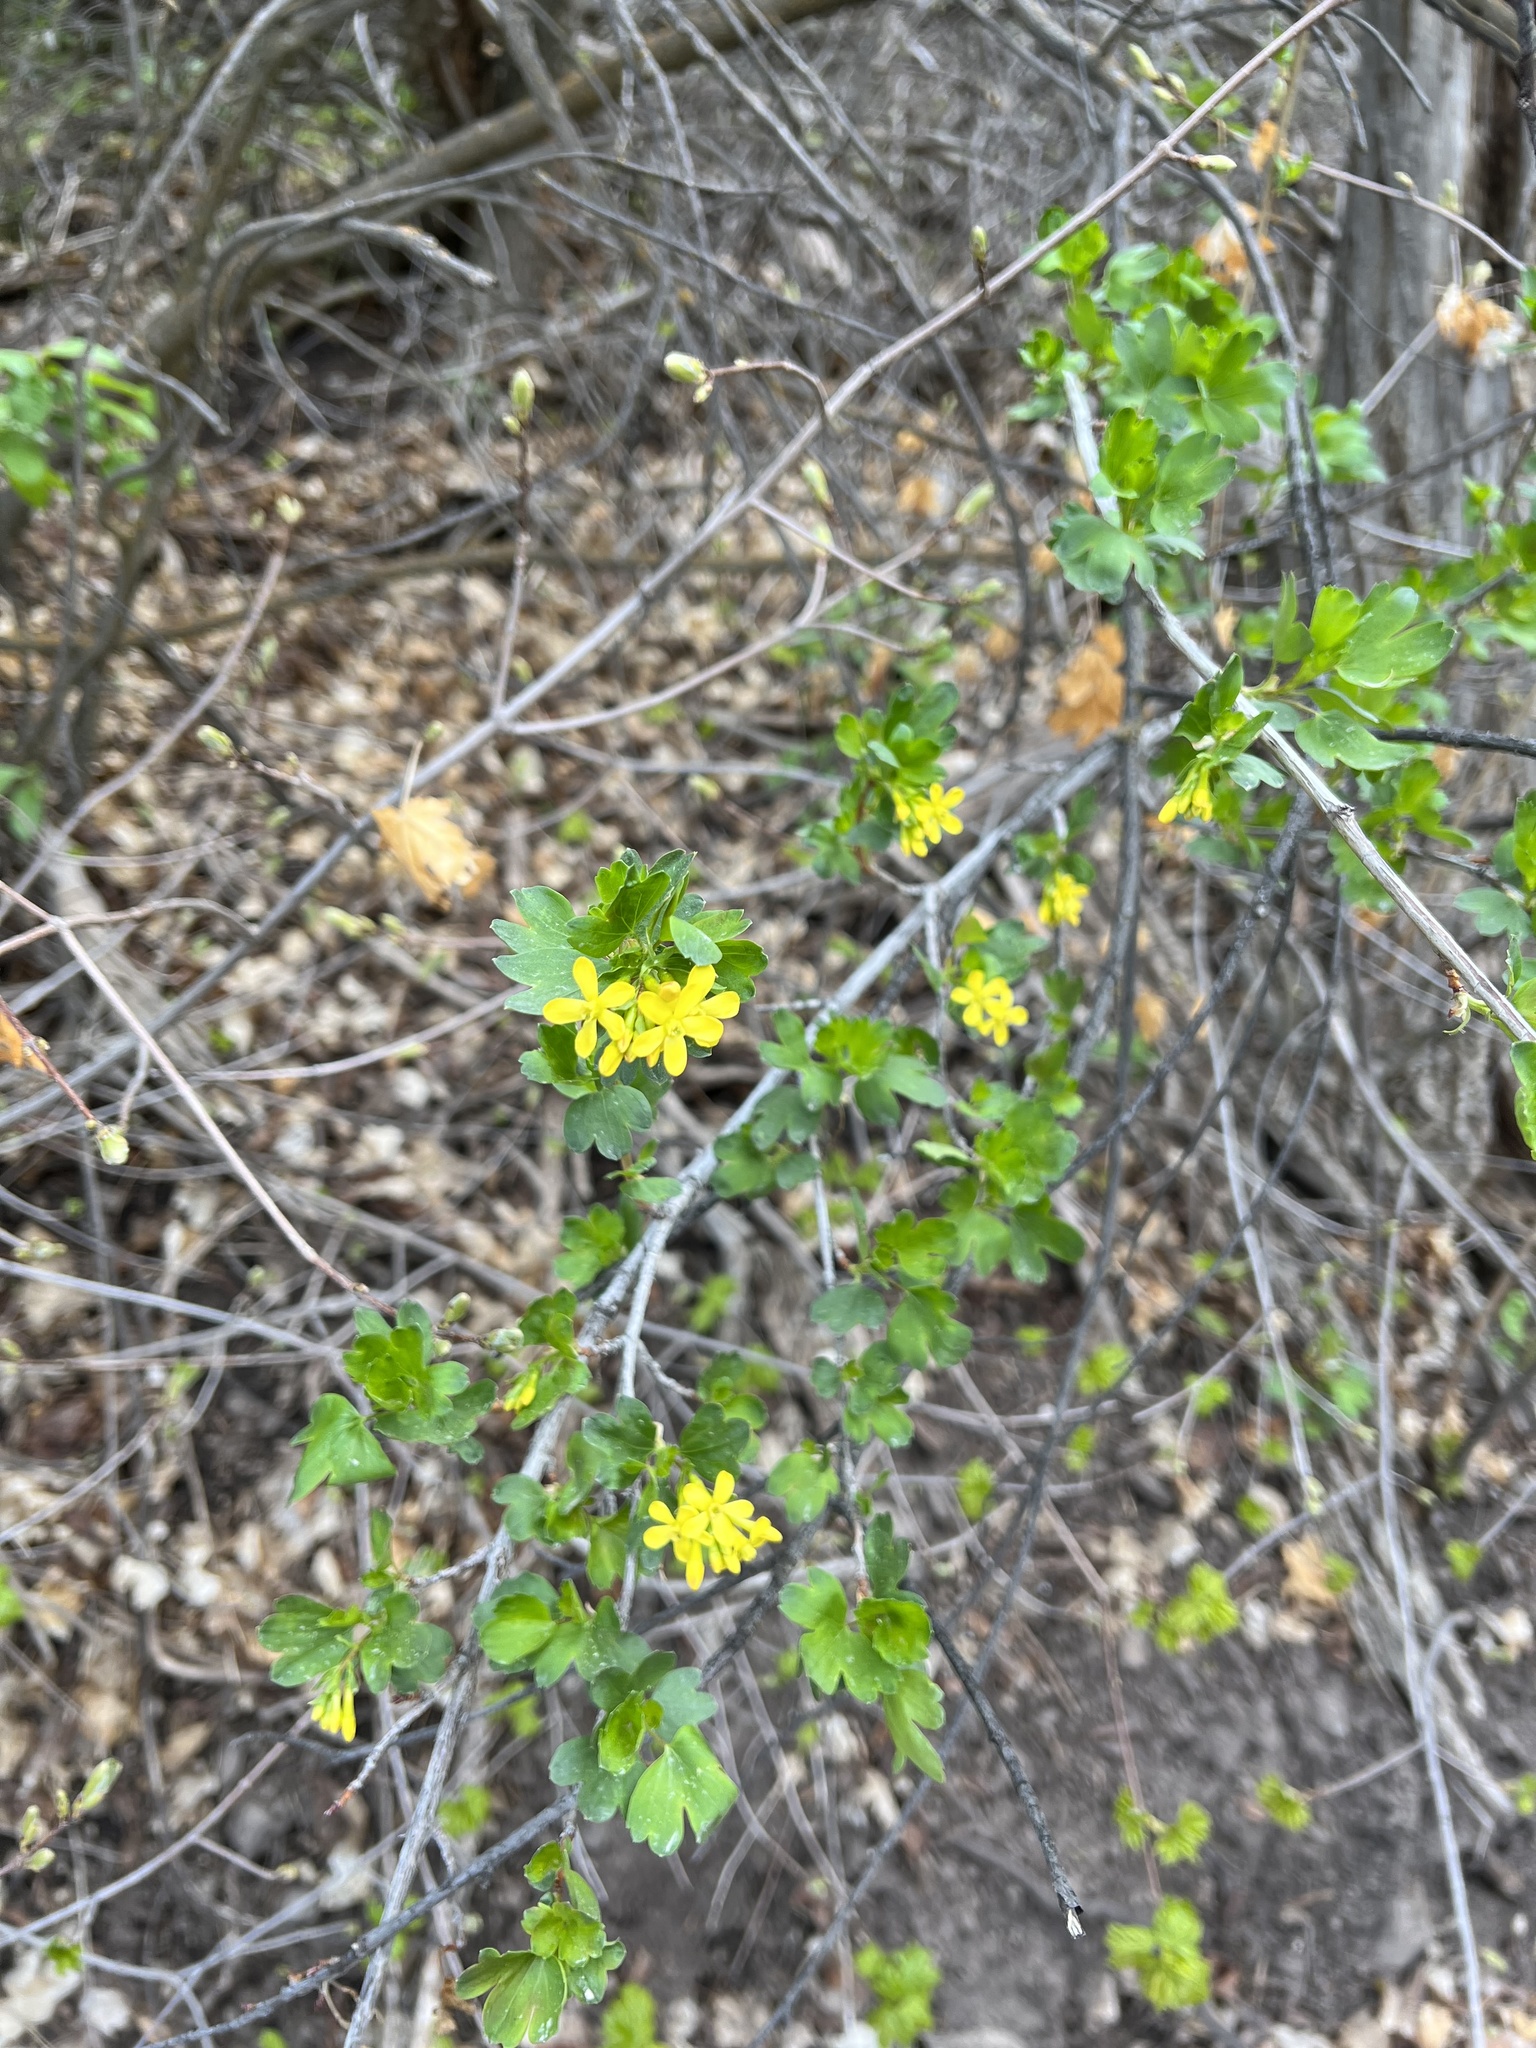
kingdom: Plantae
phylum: Tracheophyta
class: Magnoliopsida
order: Saxifragales
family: Grossulariaceae
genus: Ribes
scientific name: Ribes aureum
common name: Golden currant
